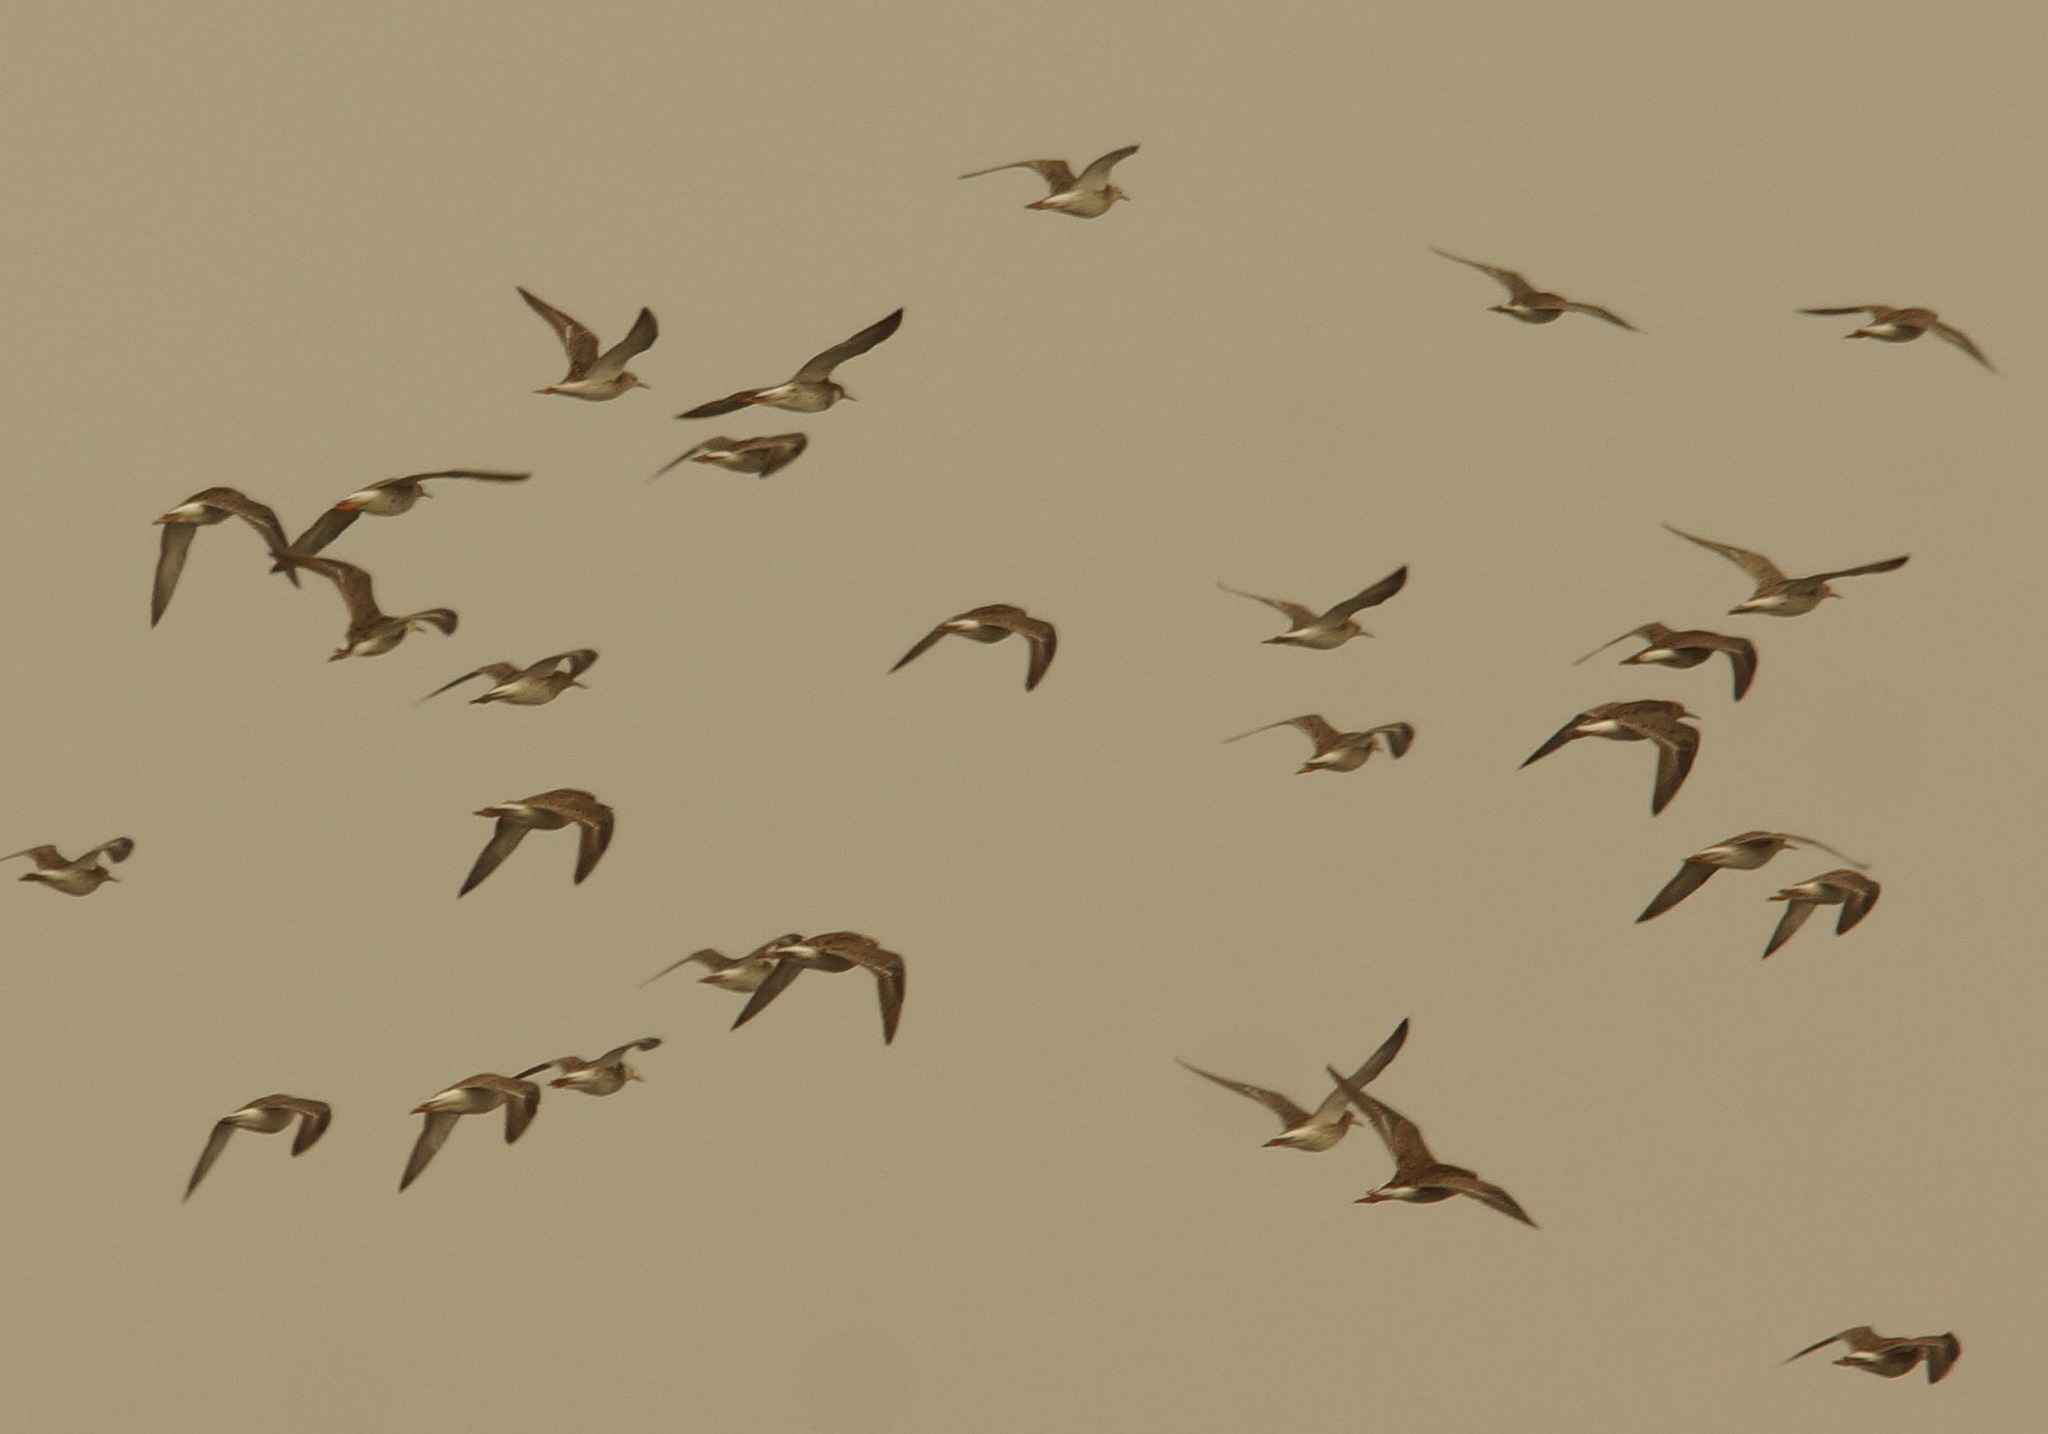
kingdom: Animalia
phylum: Chordata
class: Aves
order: Charadriiformes
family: Scolopacidae
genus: Calidris
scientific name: Calidris pugnax
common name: Ruff
